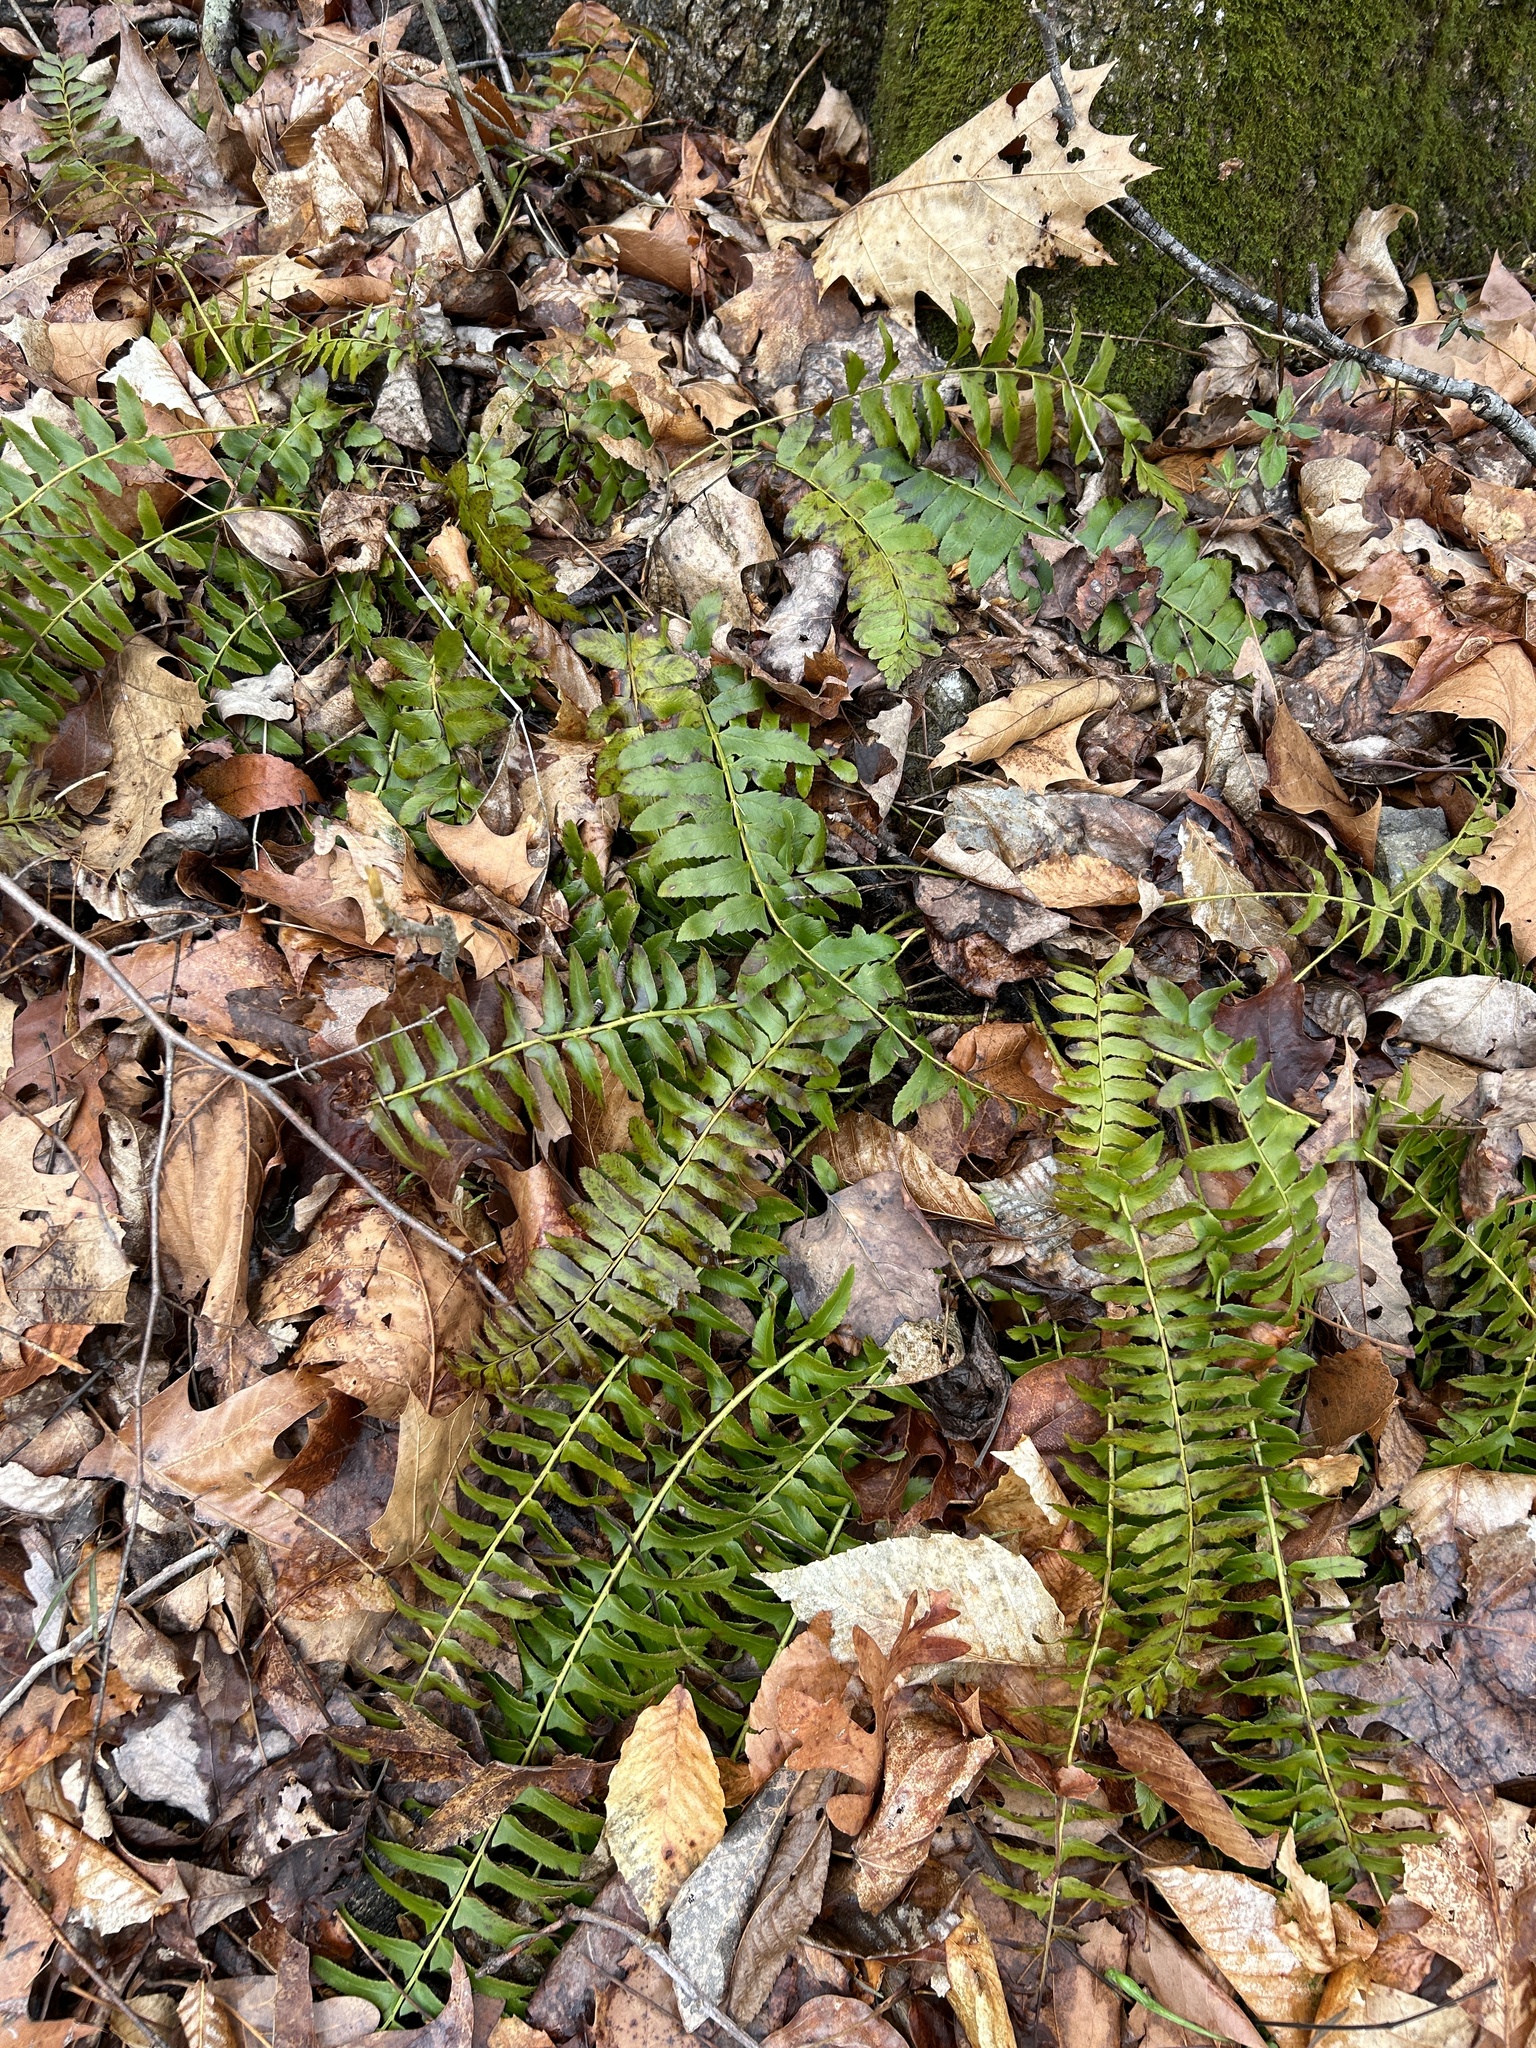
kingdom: Plantae
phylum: Tracheophyta
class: Polypodiopsida
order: Polypodiales
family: Dryopteridaceae
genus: Polystichum
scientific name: Polystichum acrostichoides
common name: Christmas fern
